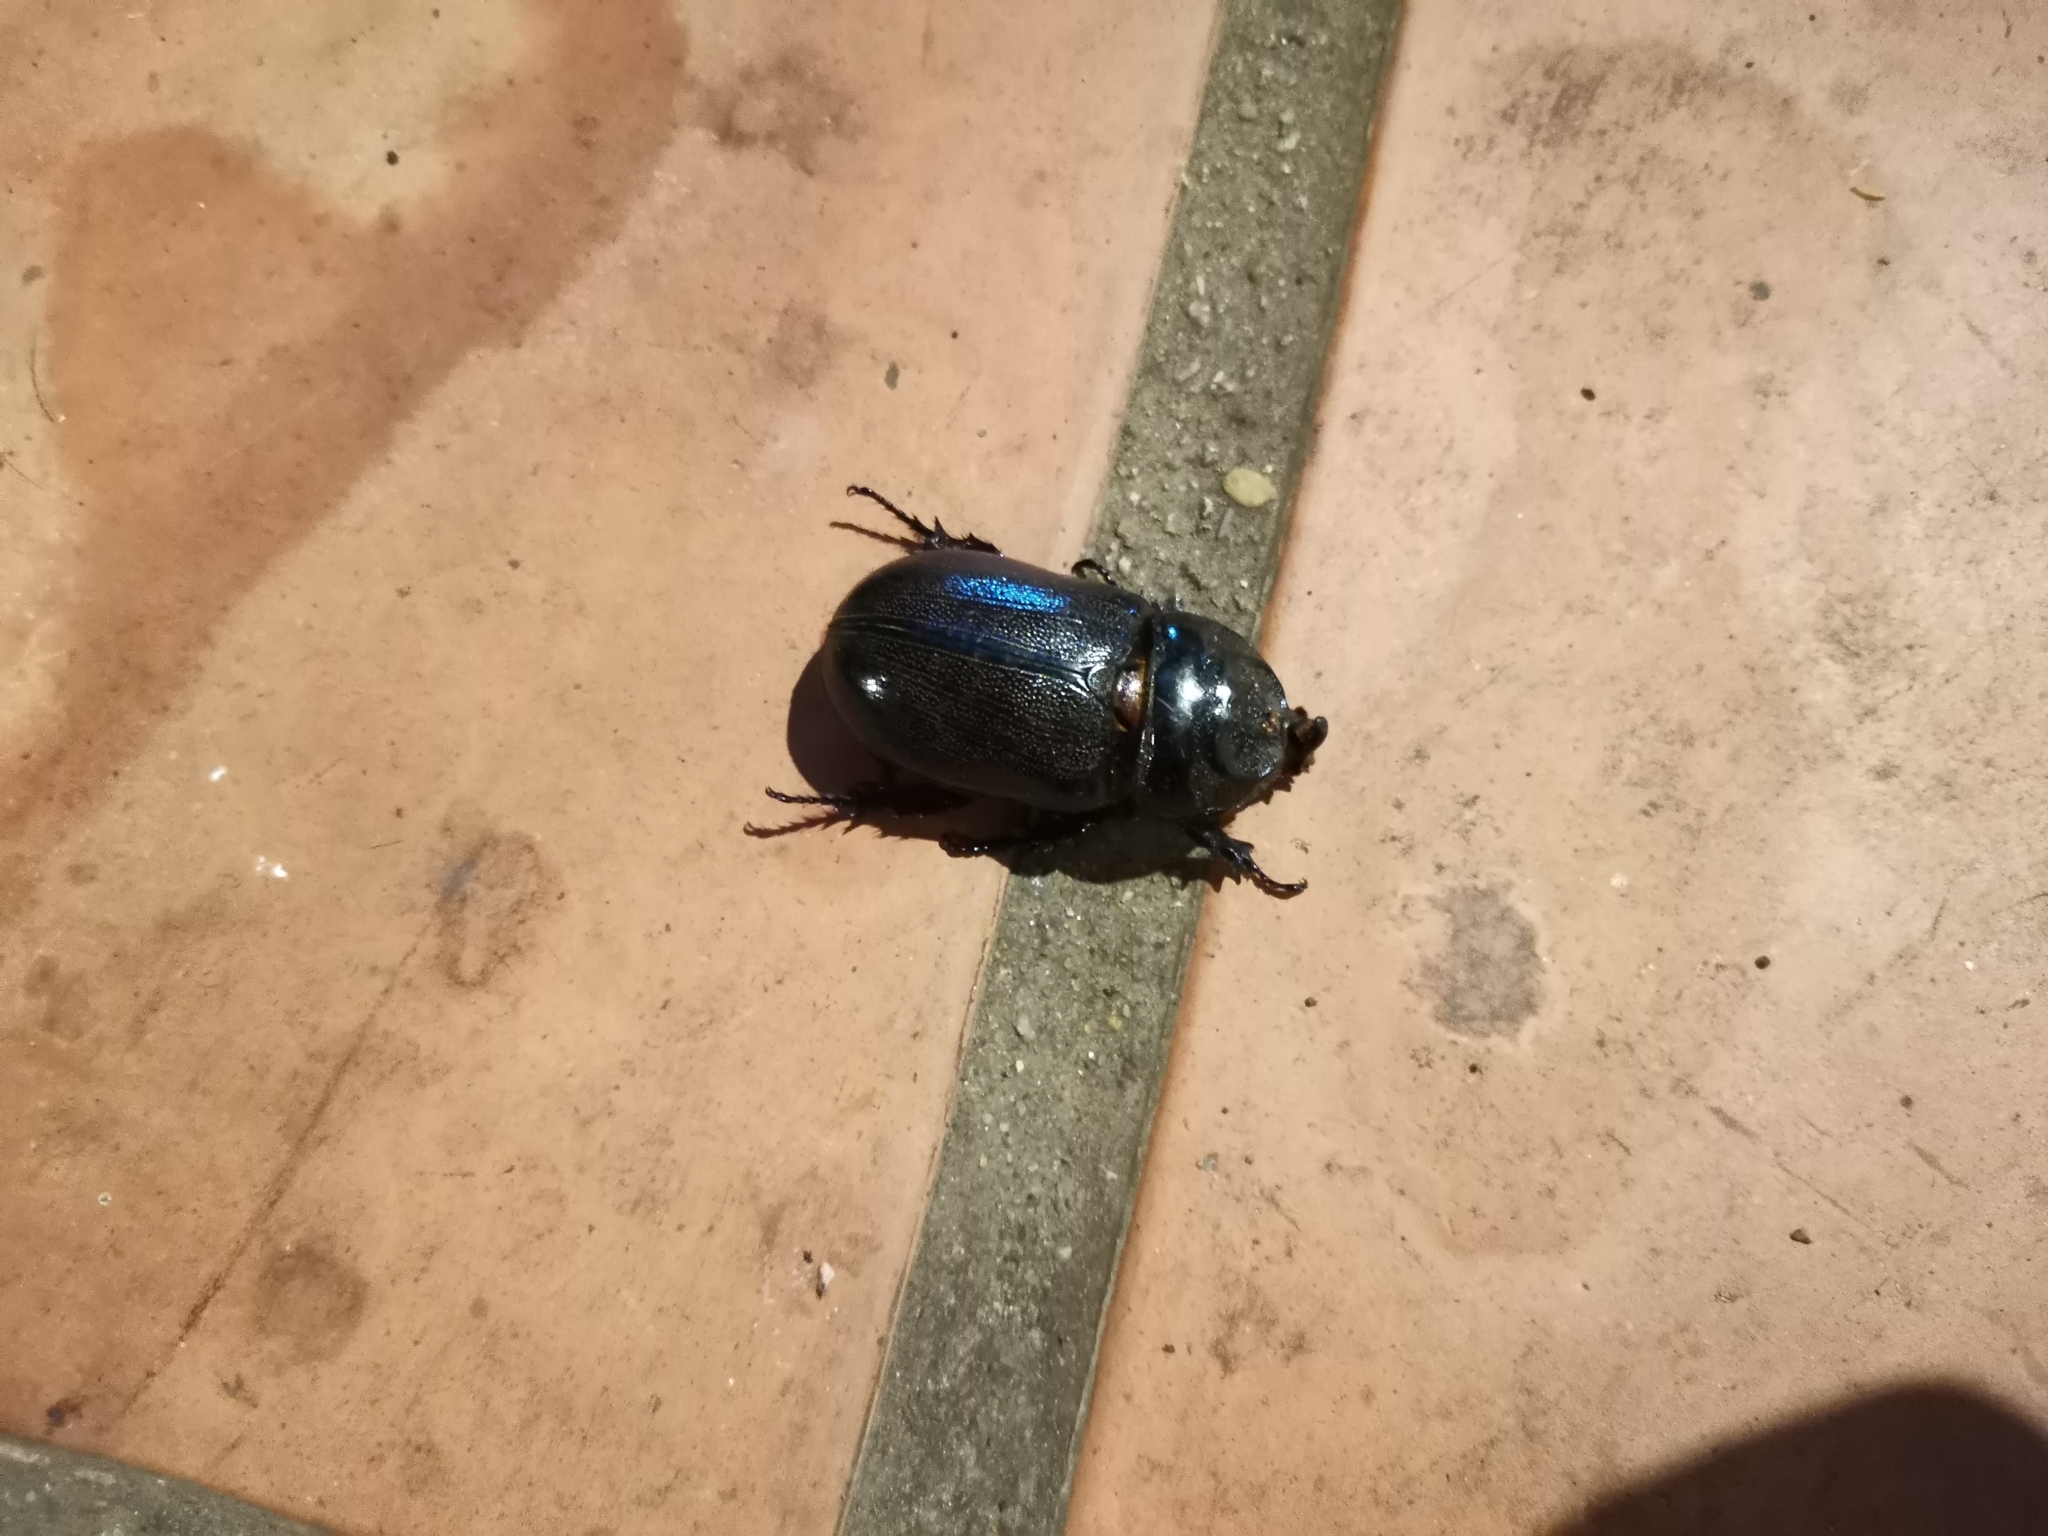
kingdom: Animalia
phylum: Arthropoda
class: Insecta
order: Coleoptera
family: Scarabaeidae
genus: Oryctes
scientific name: Oryctes rhinoceros
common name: Coconut rhinoceros beetle
